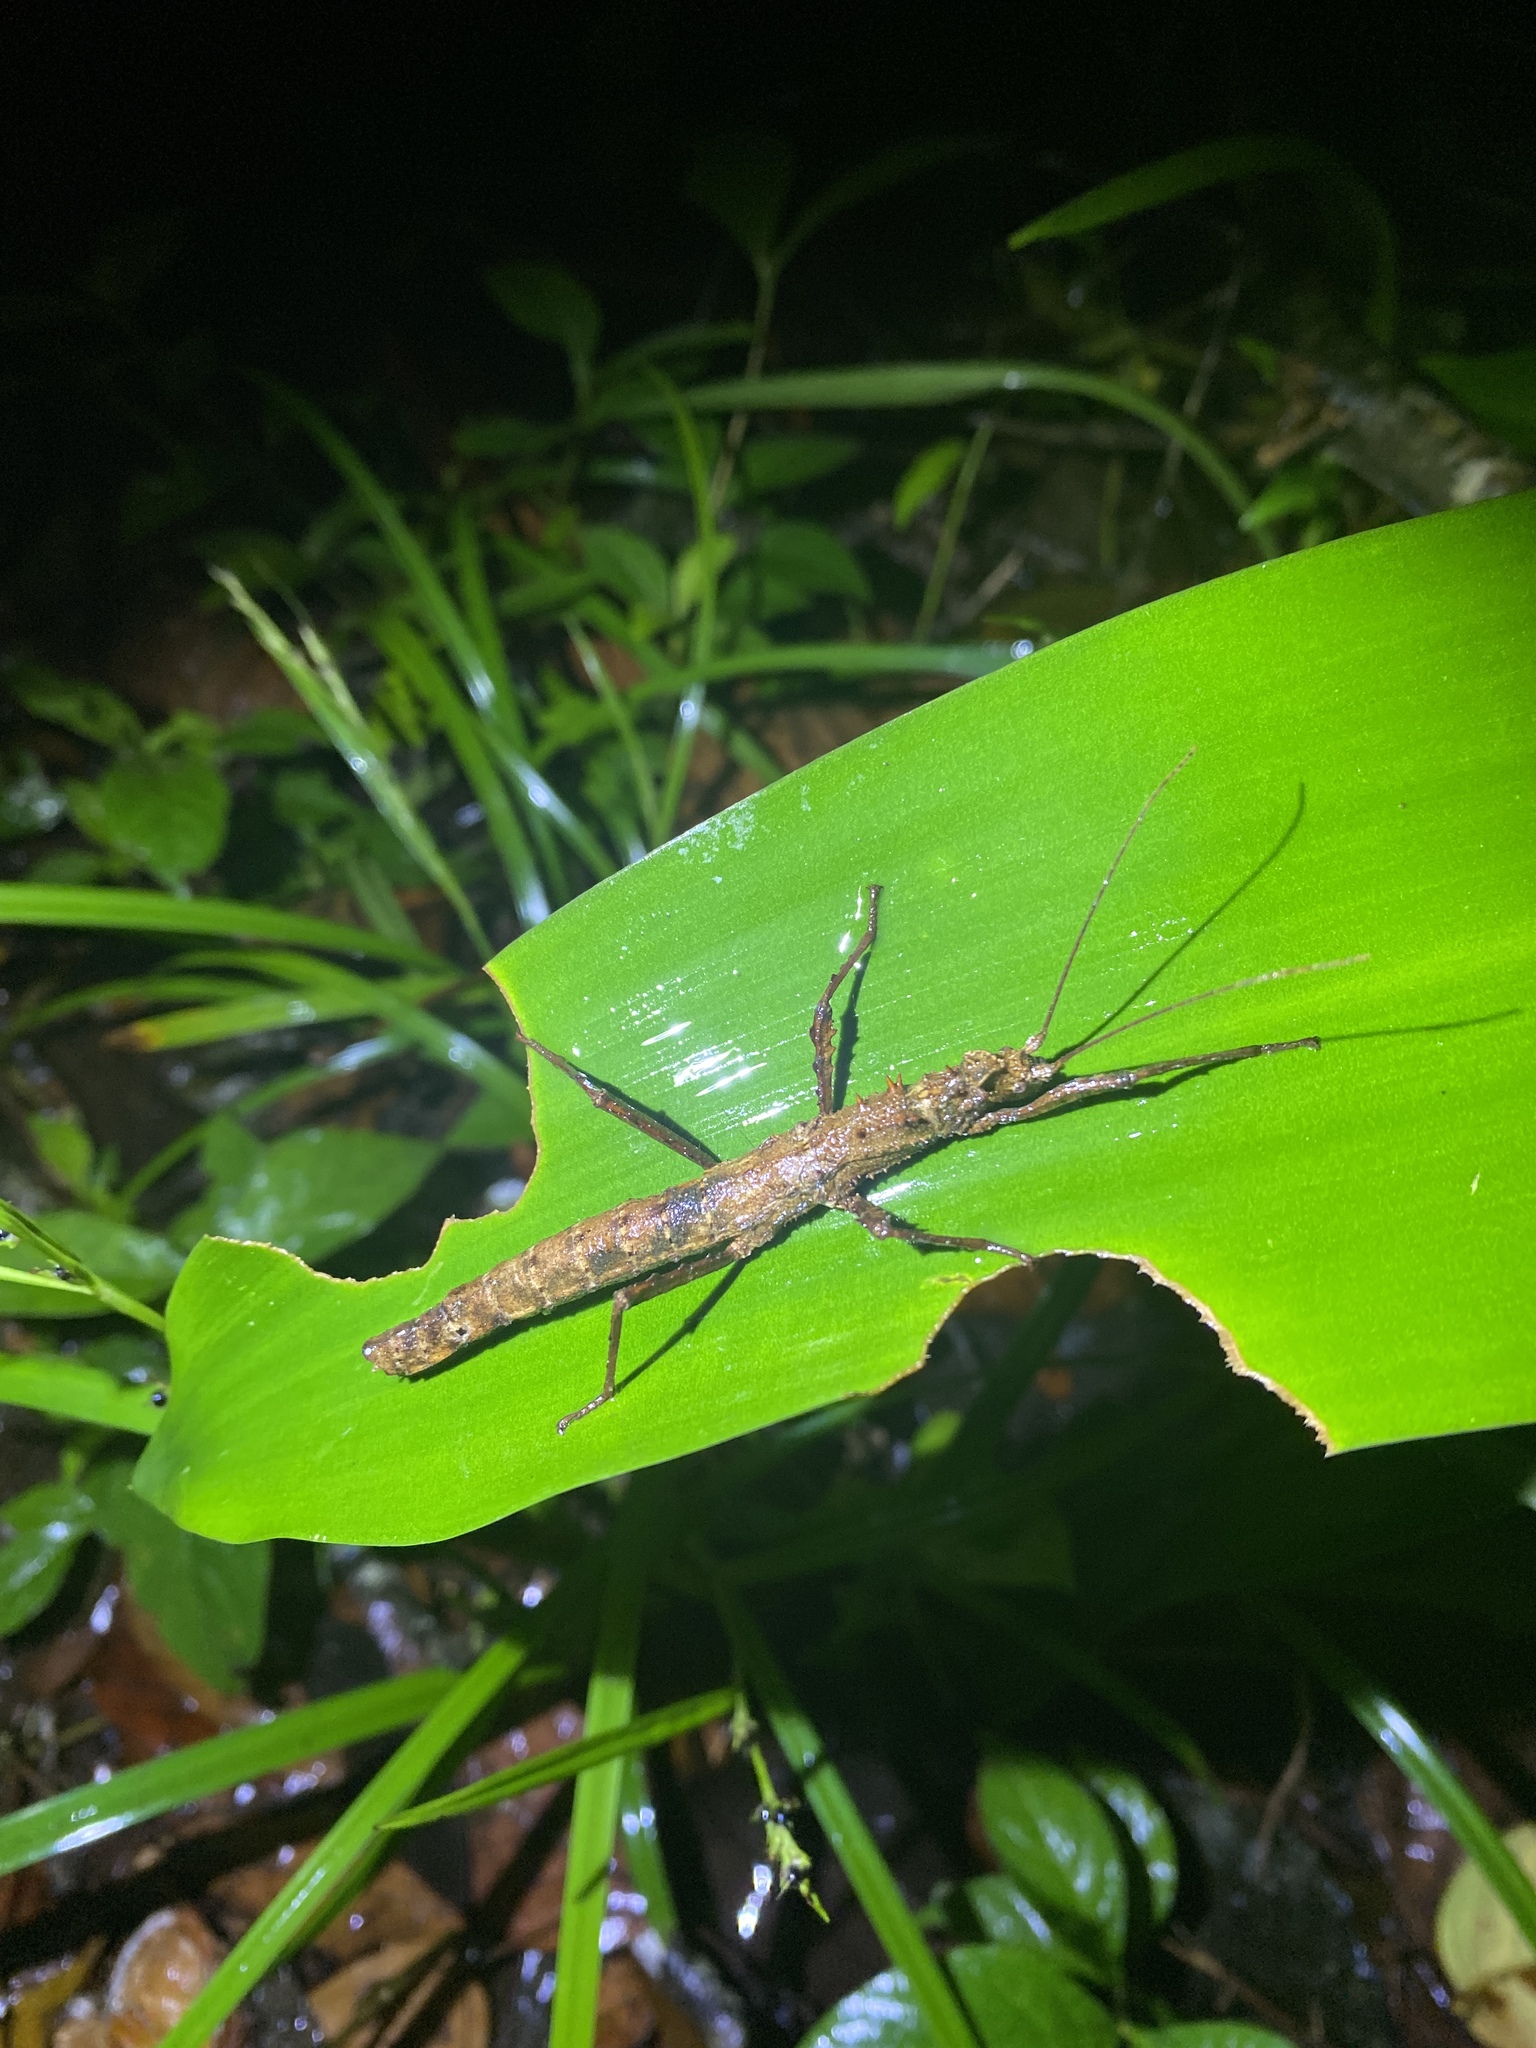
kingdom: Animalia
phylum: Arthropoda
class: Insecta
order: Phasmida
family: Pseudophasmatidae
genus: Creoxylus
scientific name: Creoxylus spinosus
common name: Trinidad log stick insect
